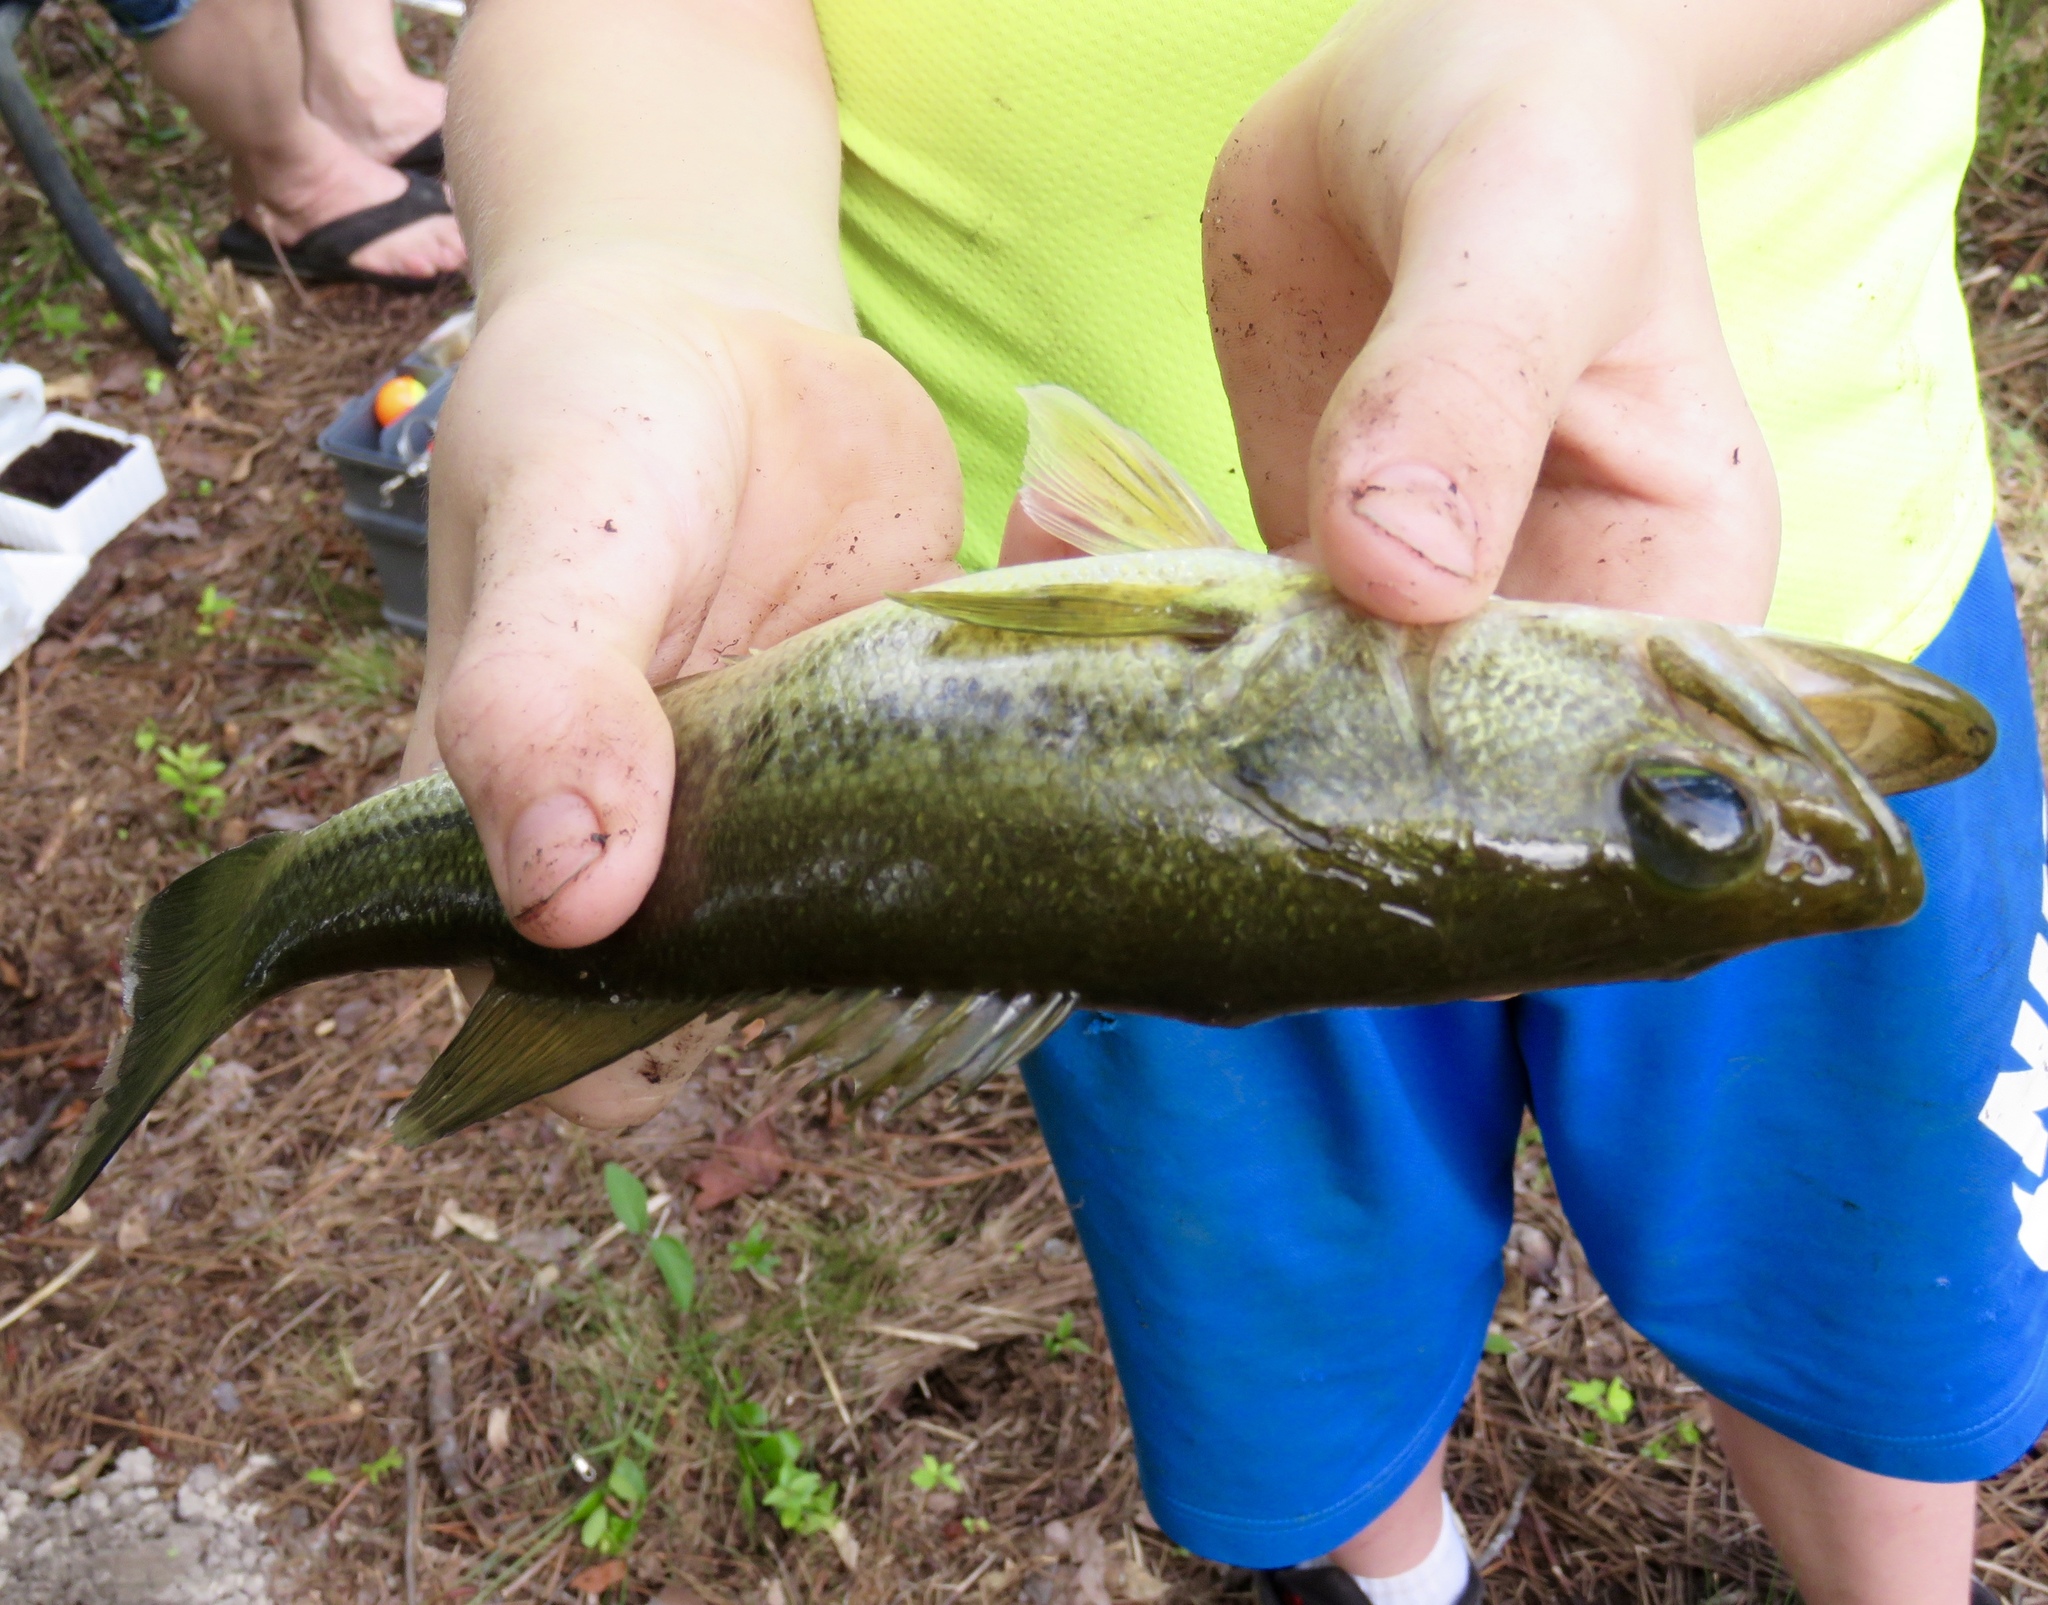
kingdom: Animalia
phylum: Chordata
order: Perciformes
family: Centrarchidae
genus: Micropterus
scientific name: Micropterus
